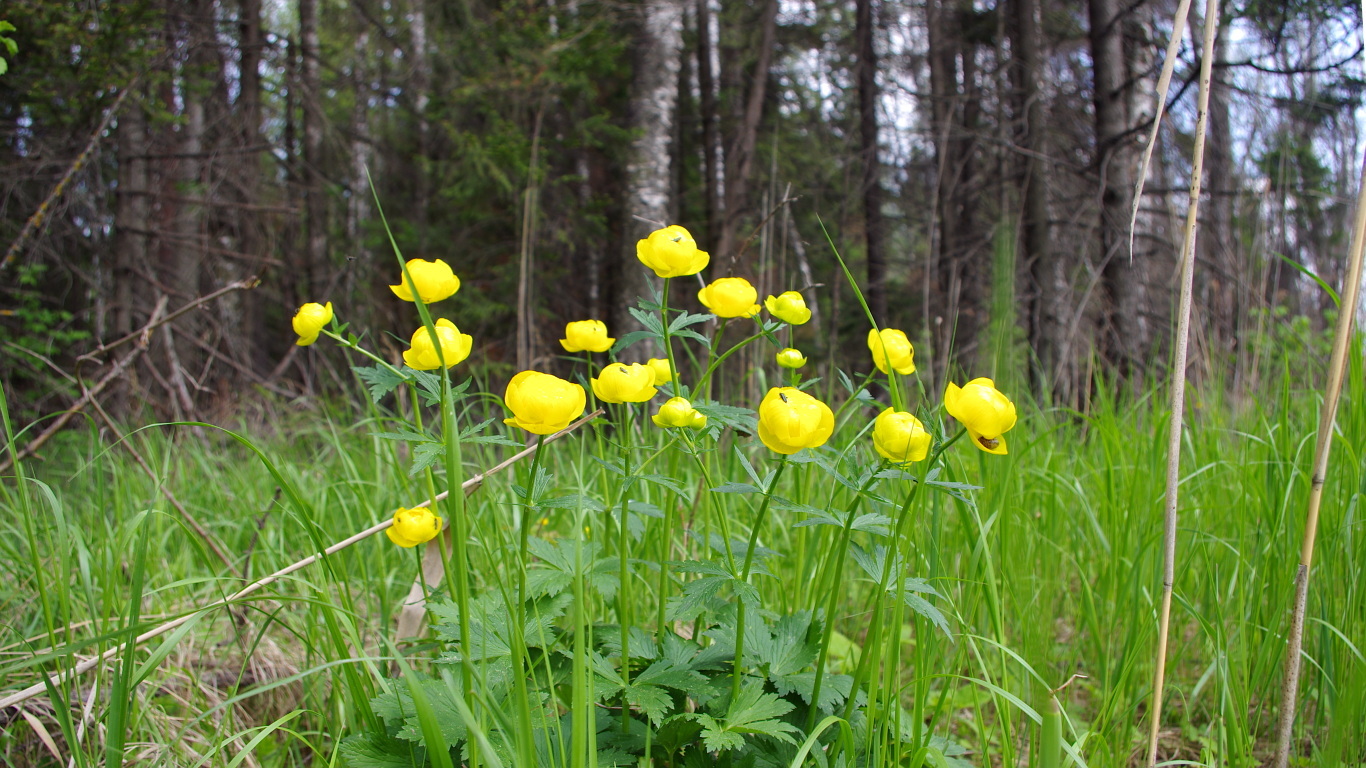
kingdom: Plantae
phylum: Tracheophyta
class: Magnoliopsida
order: Ranunculales
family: Ranunculaceae
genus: Trollius
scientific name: Trollius europaeus
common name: European globeflower
